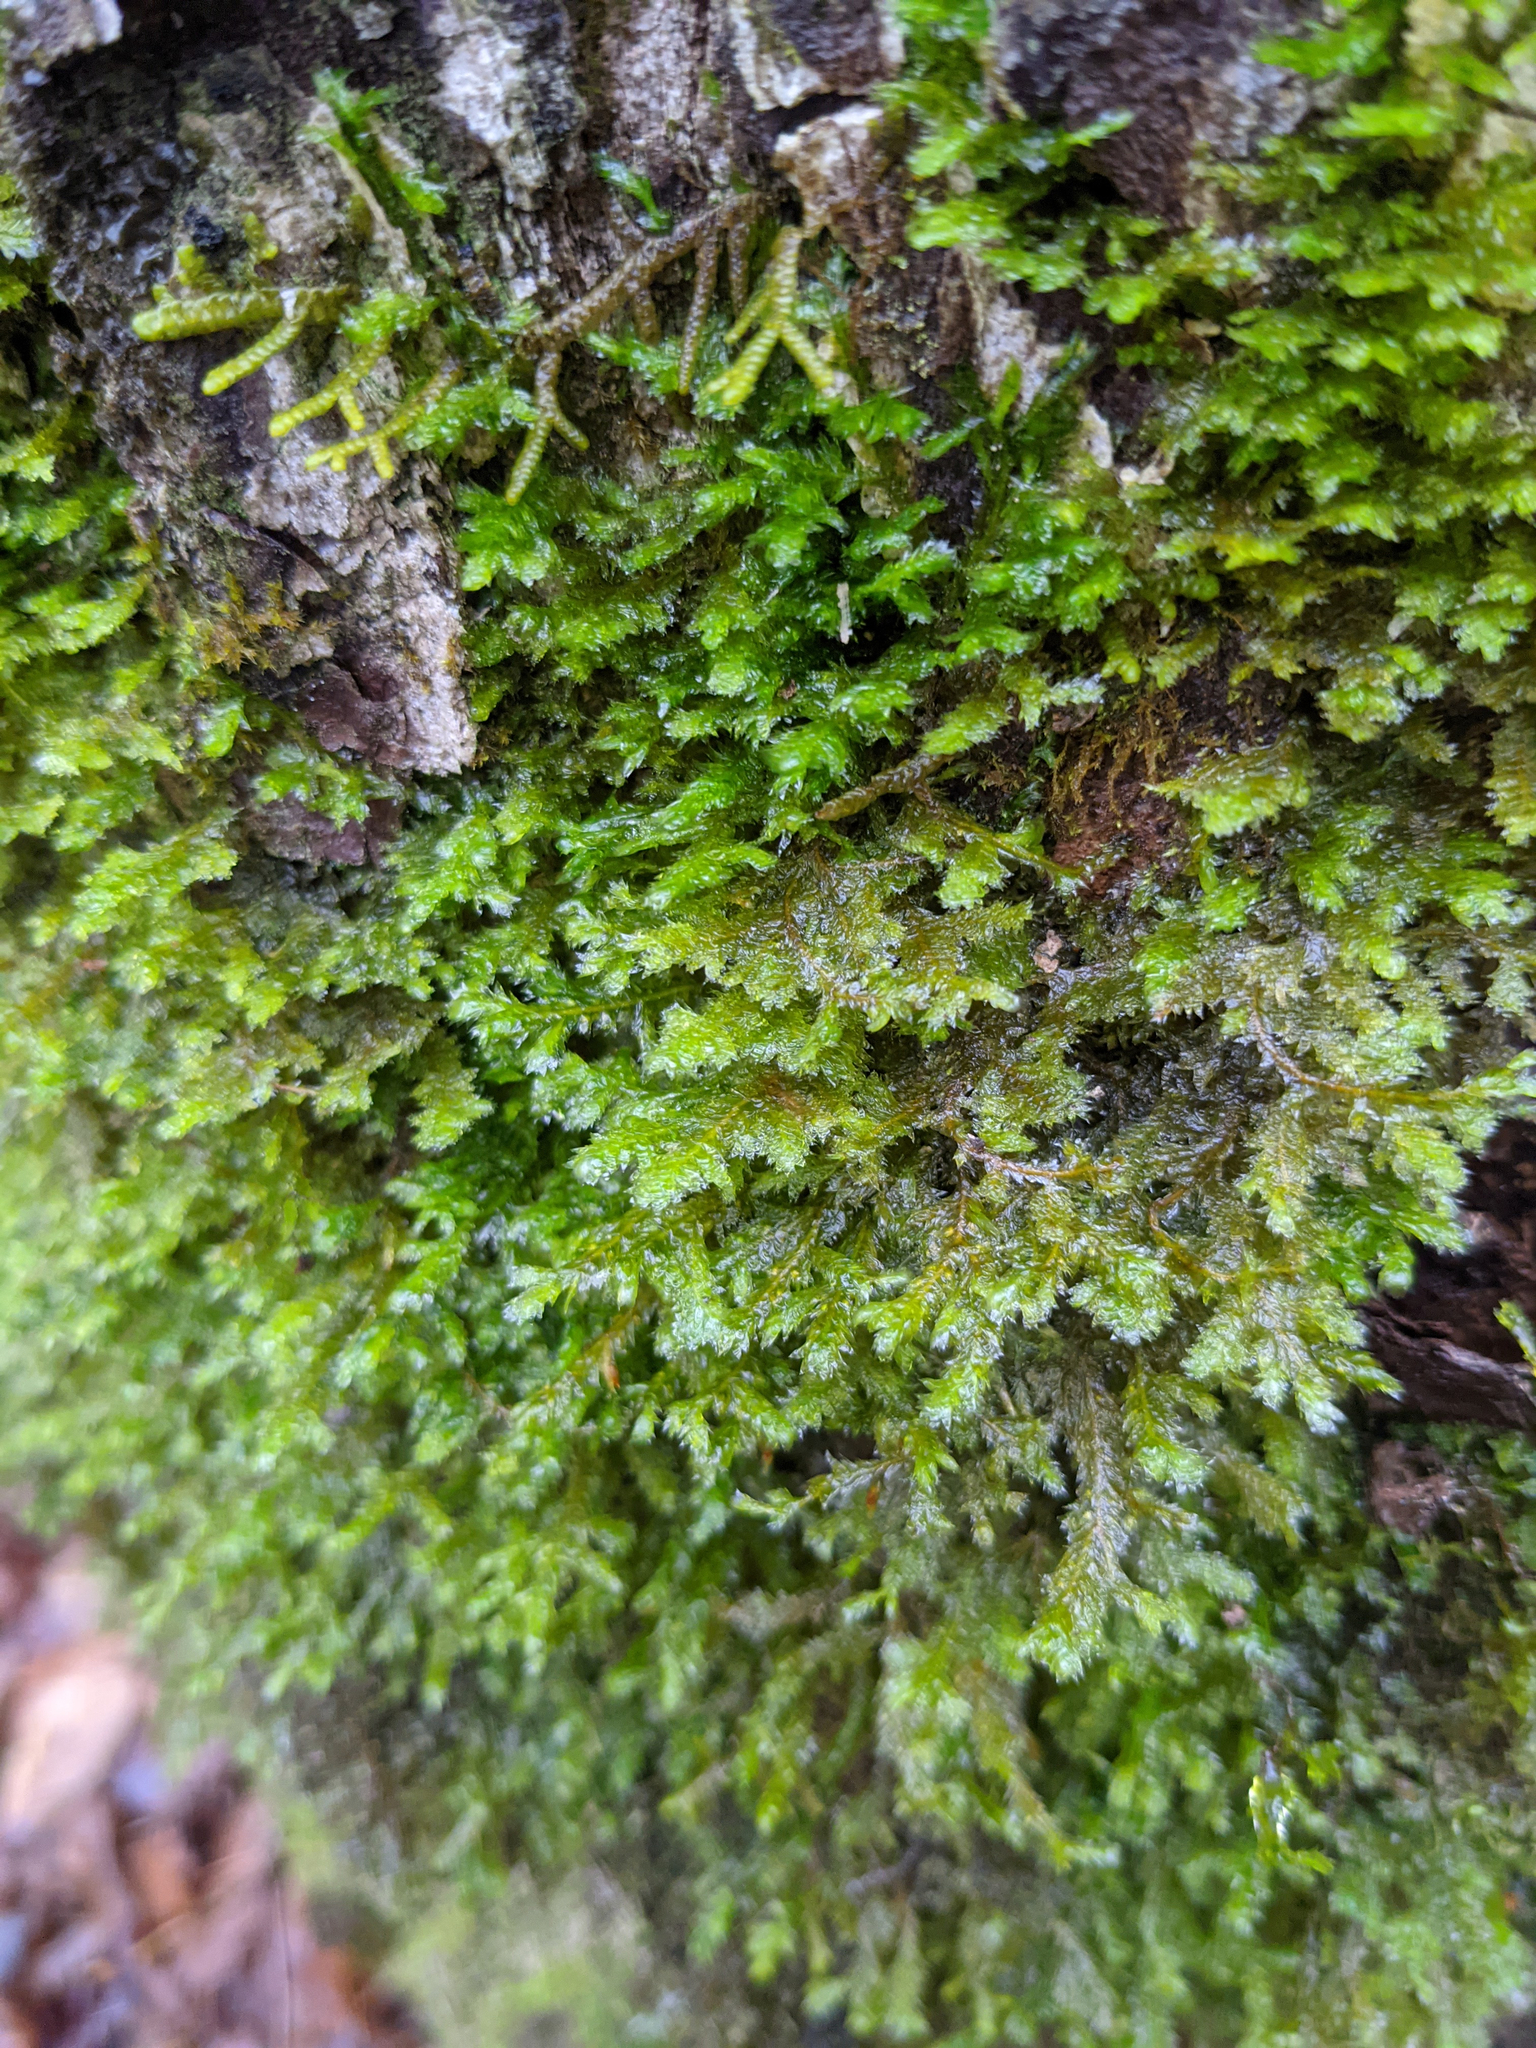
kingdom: Plantae
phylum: Bryophyta
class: Bryopsida
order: Hypnales
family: Neckeraceae
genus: Neckera
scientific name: Neckera pennata
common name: Feathery neckera
